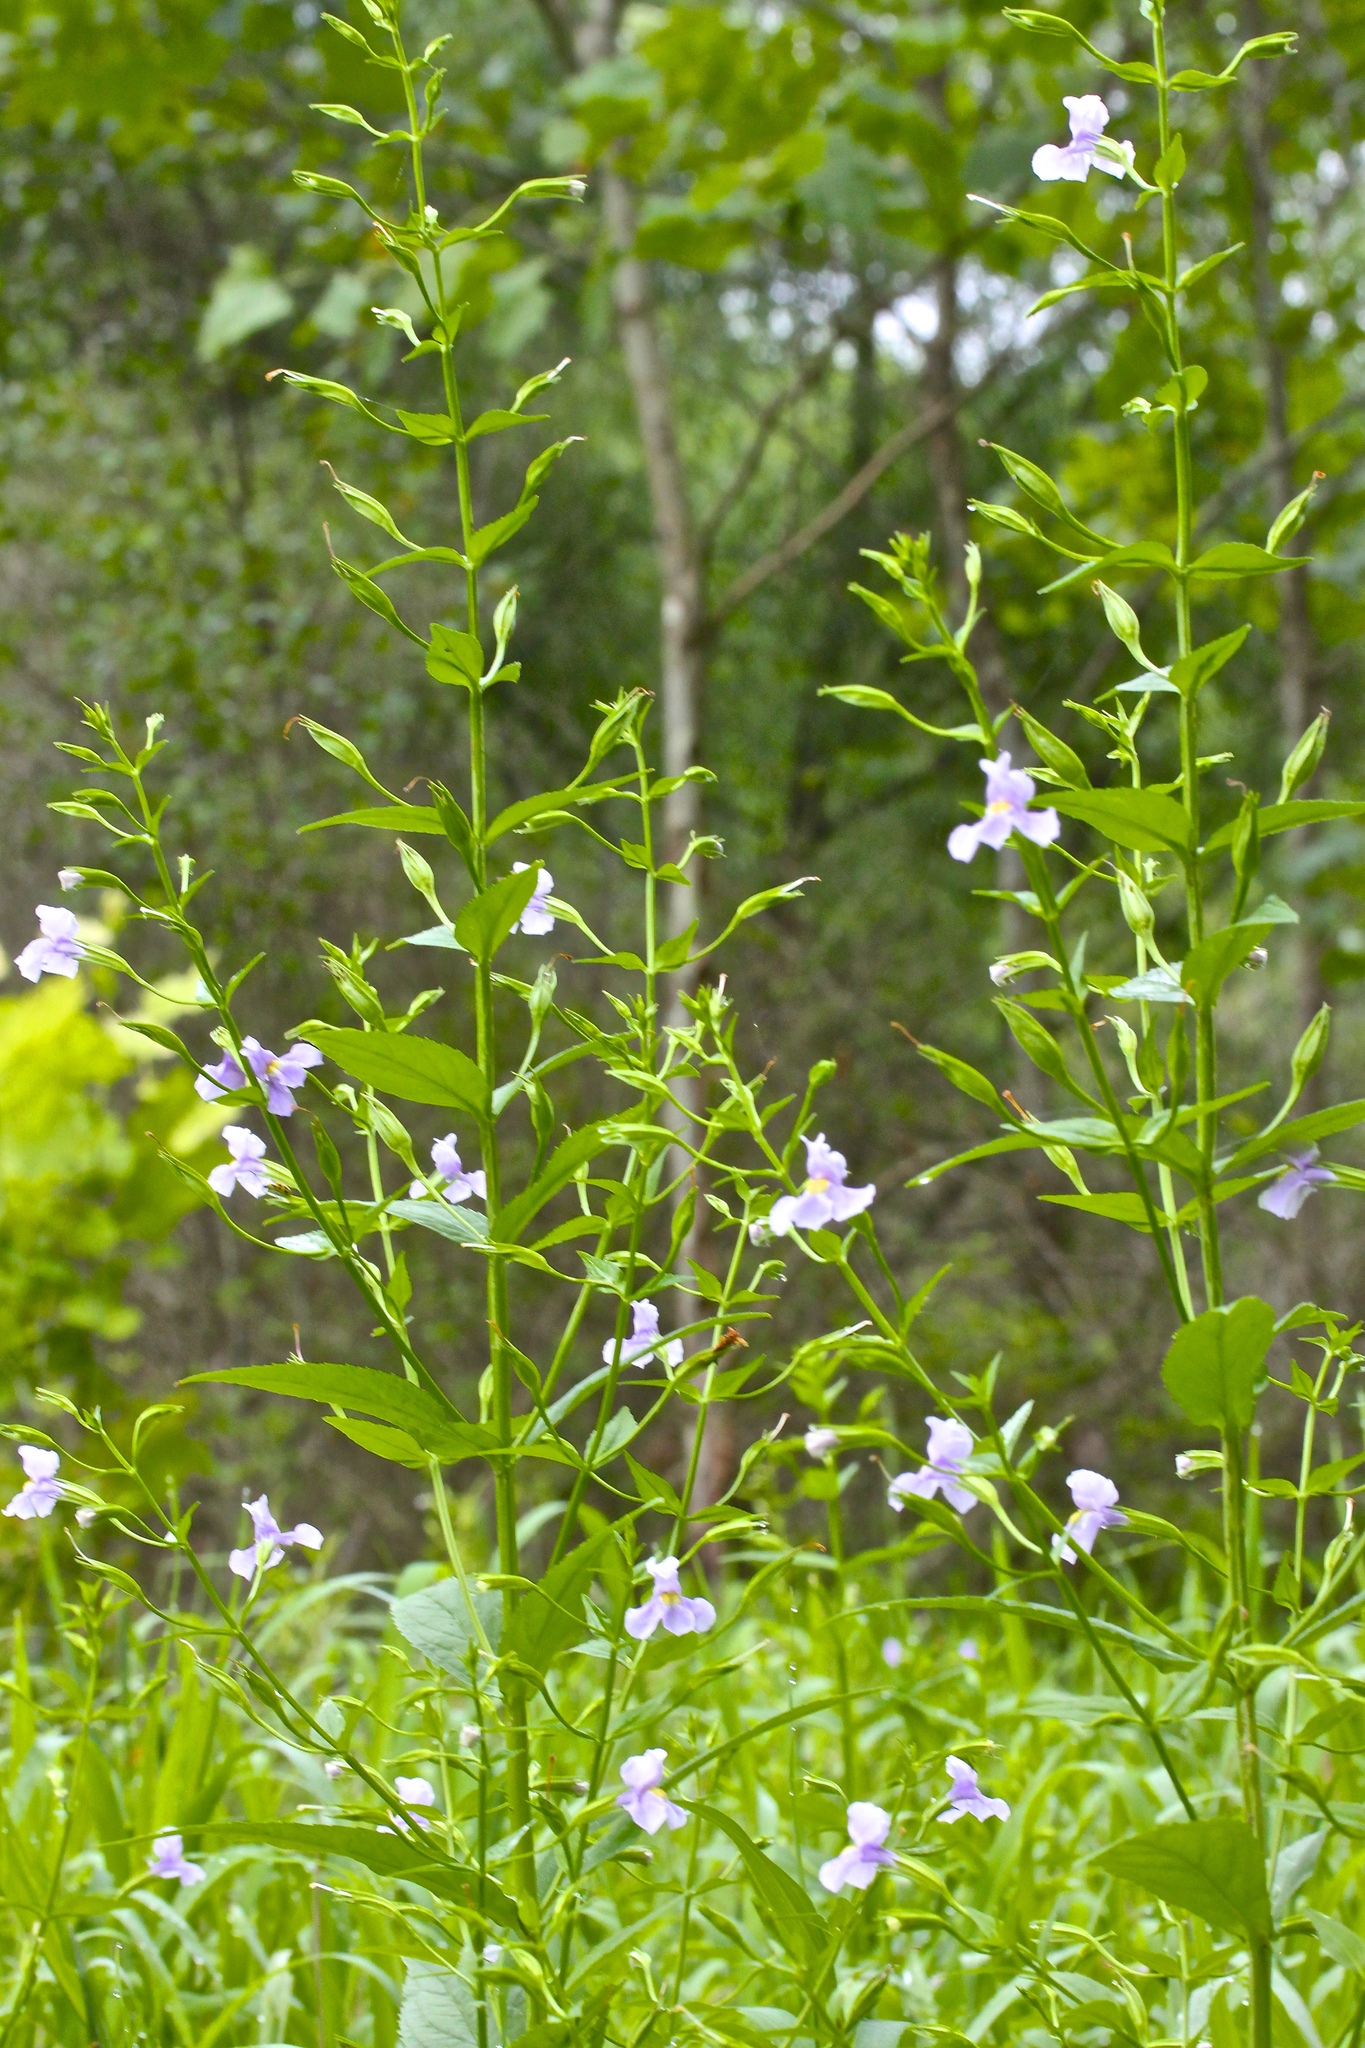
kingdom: Plantae
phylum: Tracheophyta
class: Magnoliopsida
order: Lamiales
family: Phrymaceae
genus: Mimulus
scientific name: Mimulus ringens
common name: Allegheny monkeyflower
